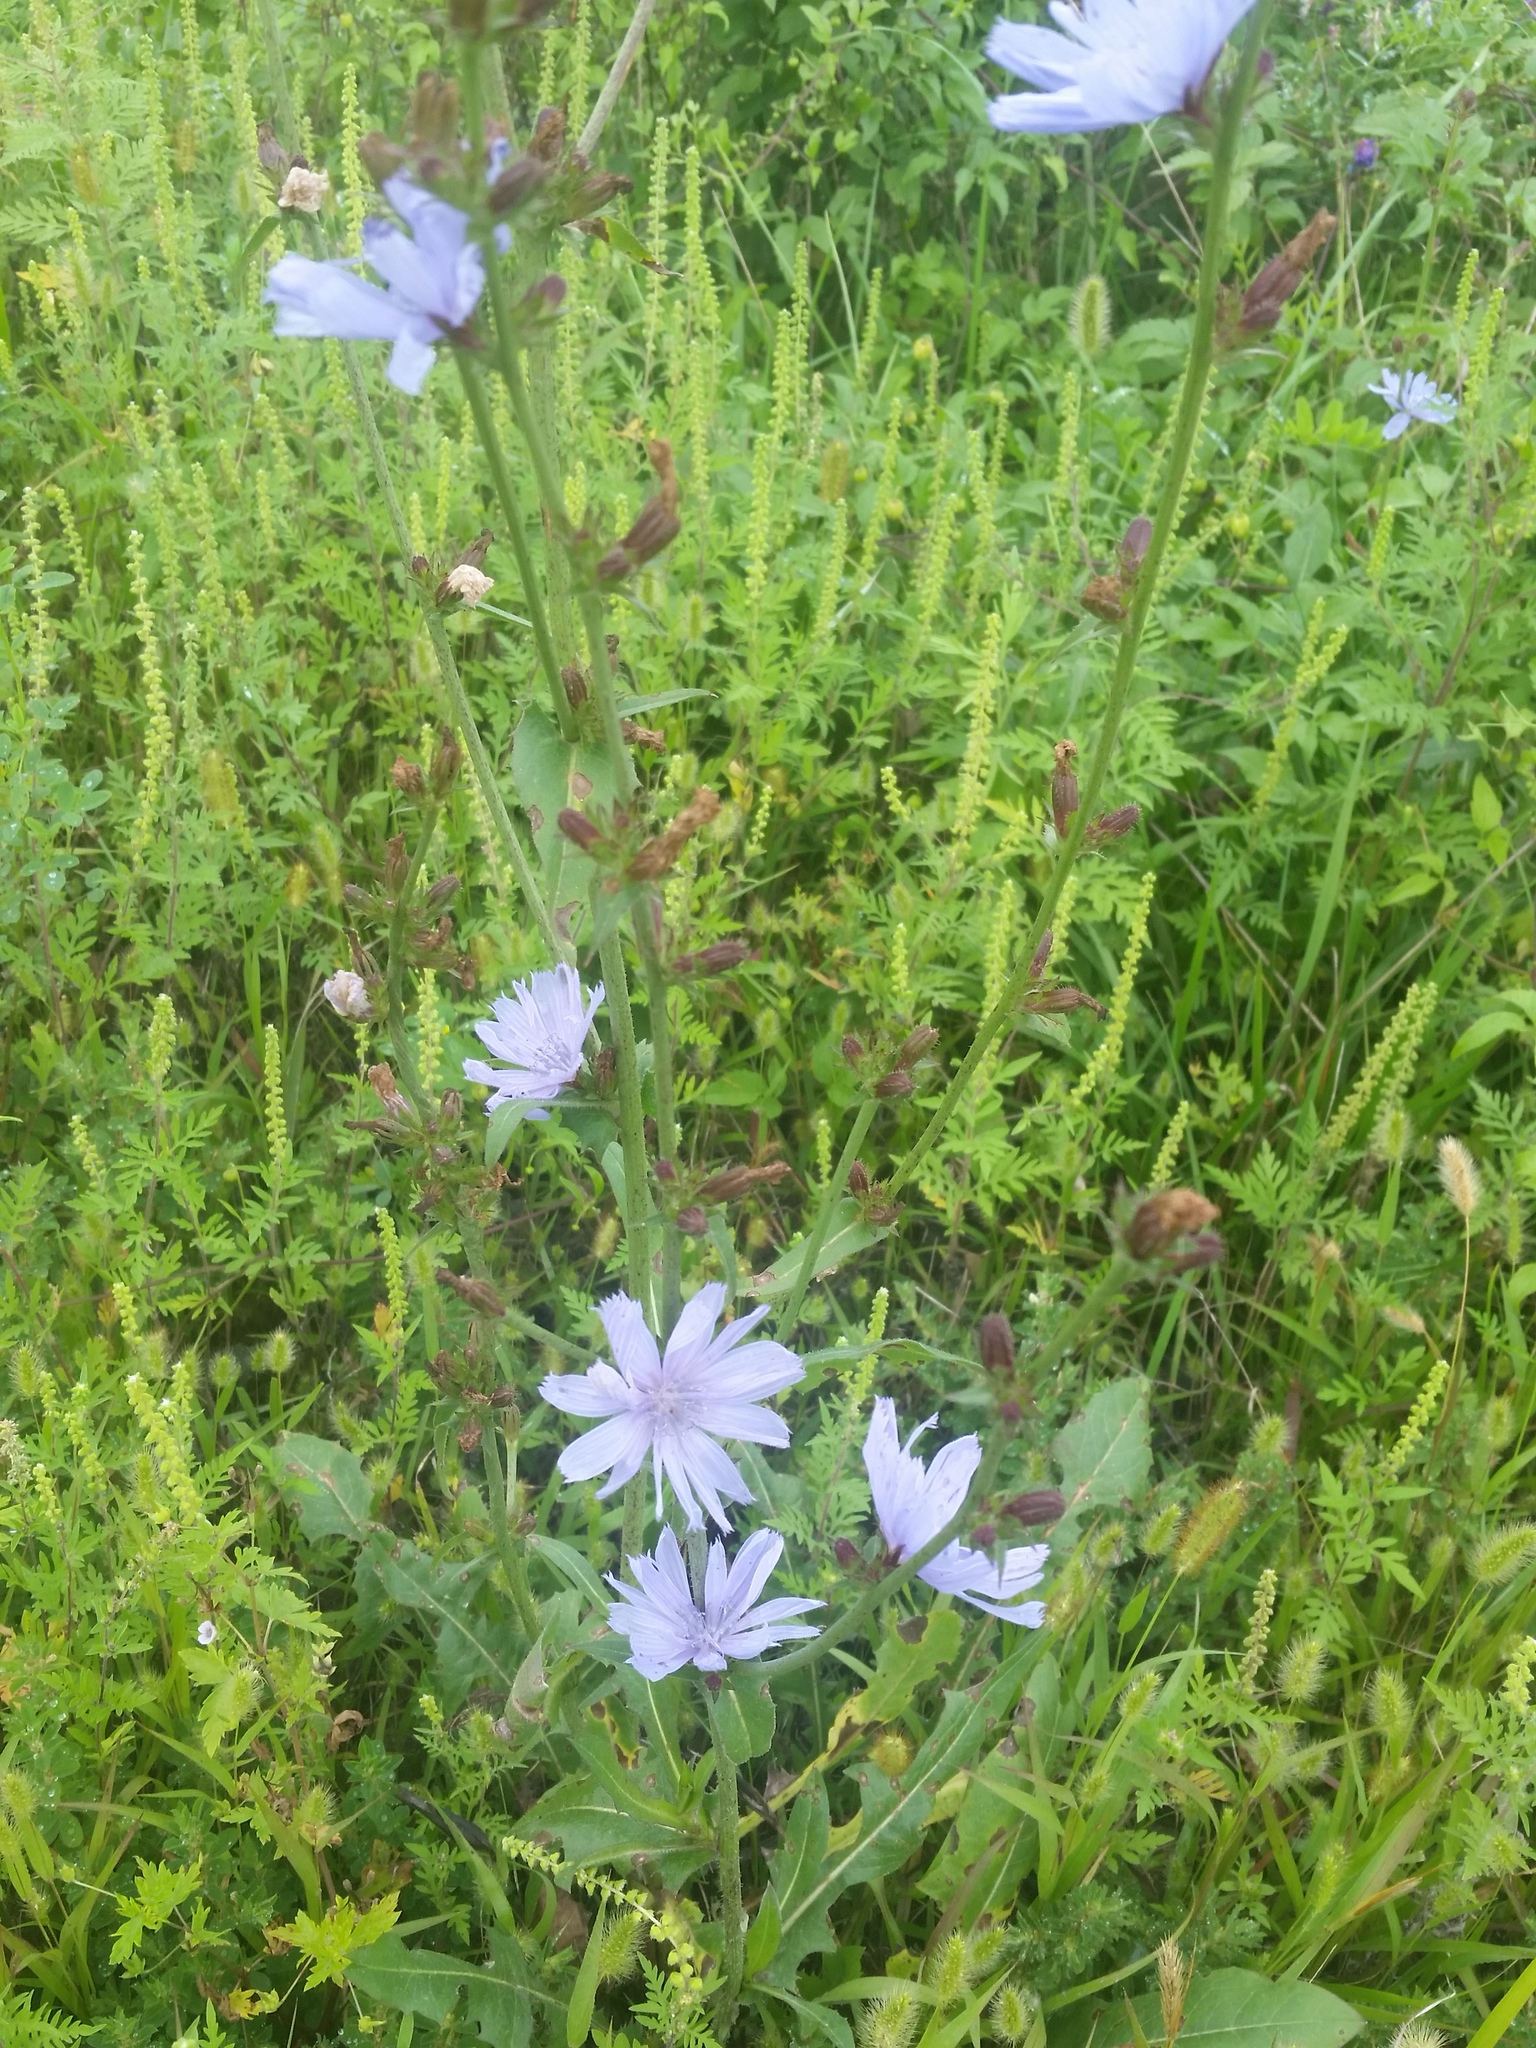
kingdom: Plantae
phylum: Tracheophyta
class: Magnoliopsida
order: Asterales
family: Asteraceae
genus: Cichorium
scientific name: Cichorium intybus
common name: Chicory
